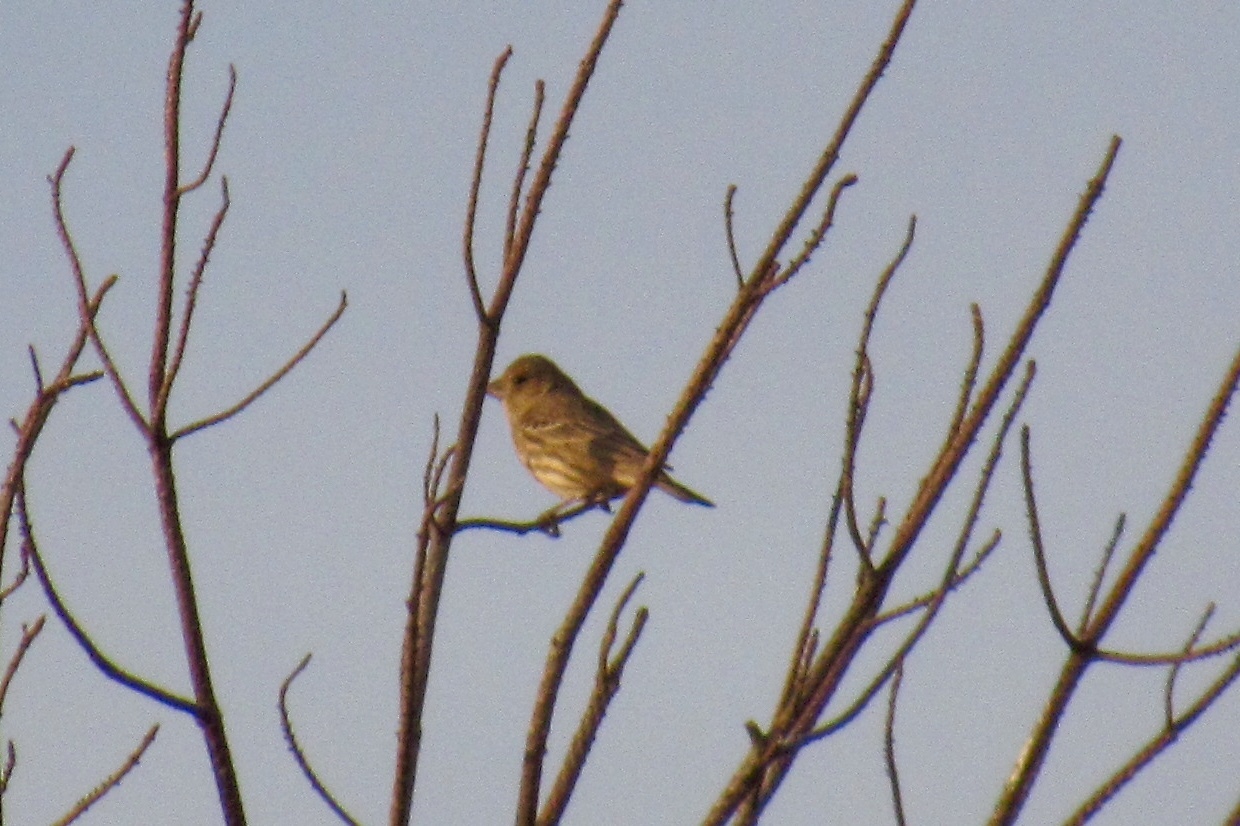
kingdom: Animalia
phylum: Chordata
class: Aves
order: Passeriformes
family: Fringillidae
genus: Haemorhous
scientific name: Haemorhous mexicanus
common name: House finch
